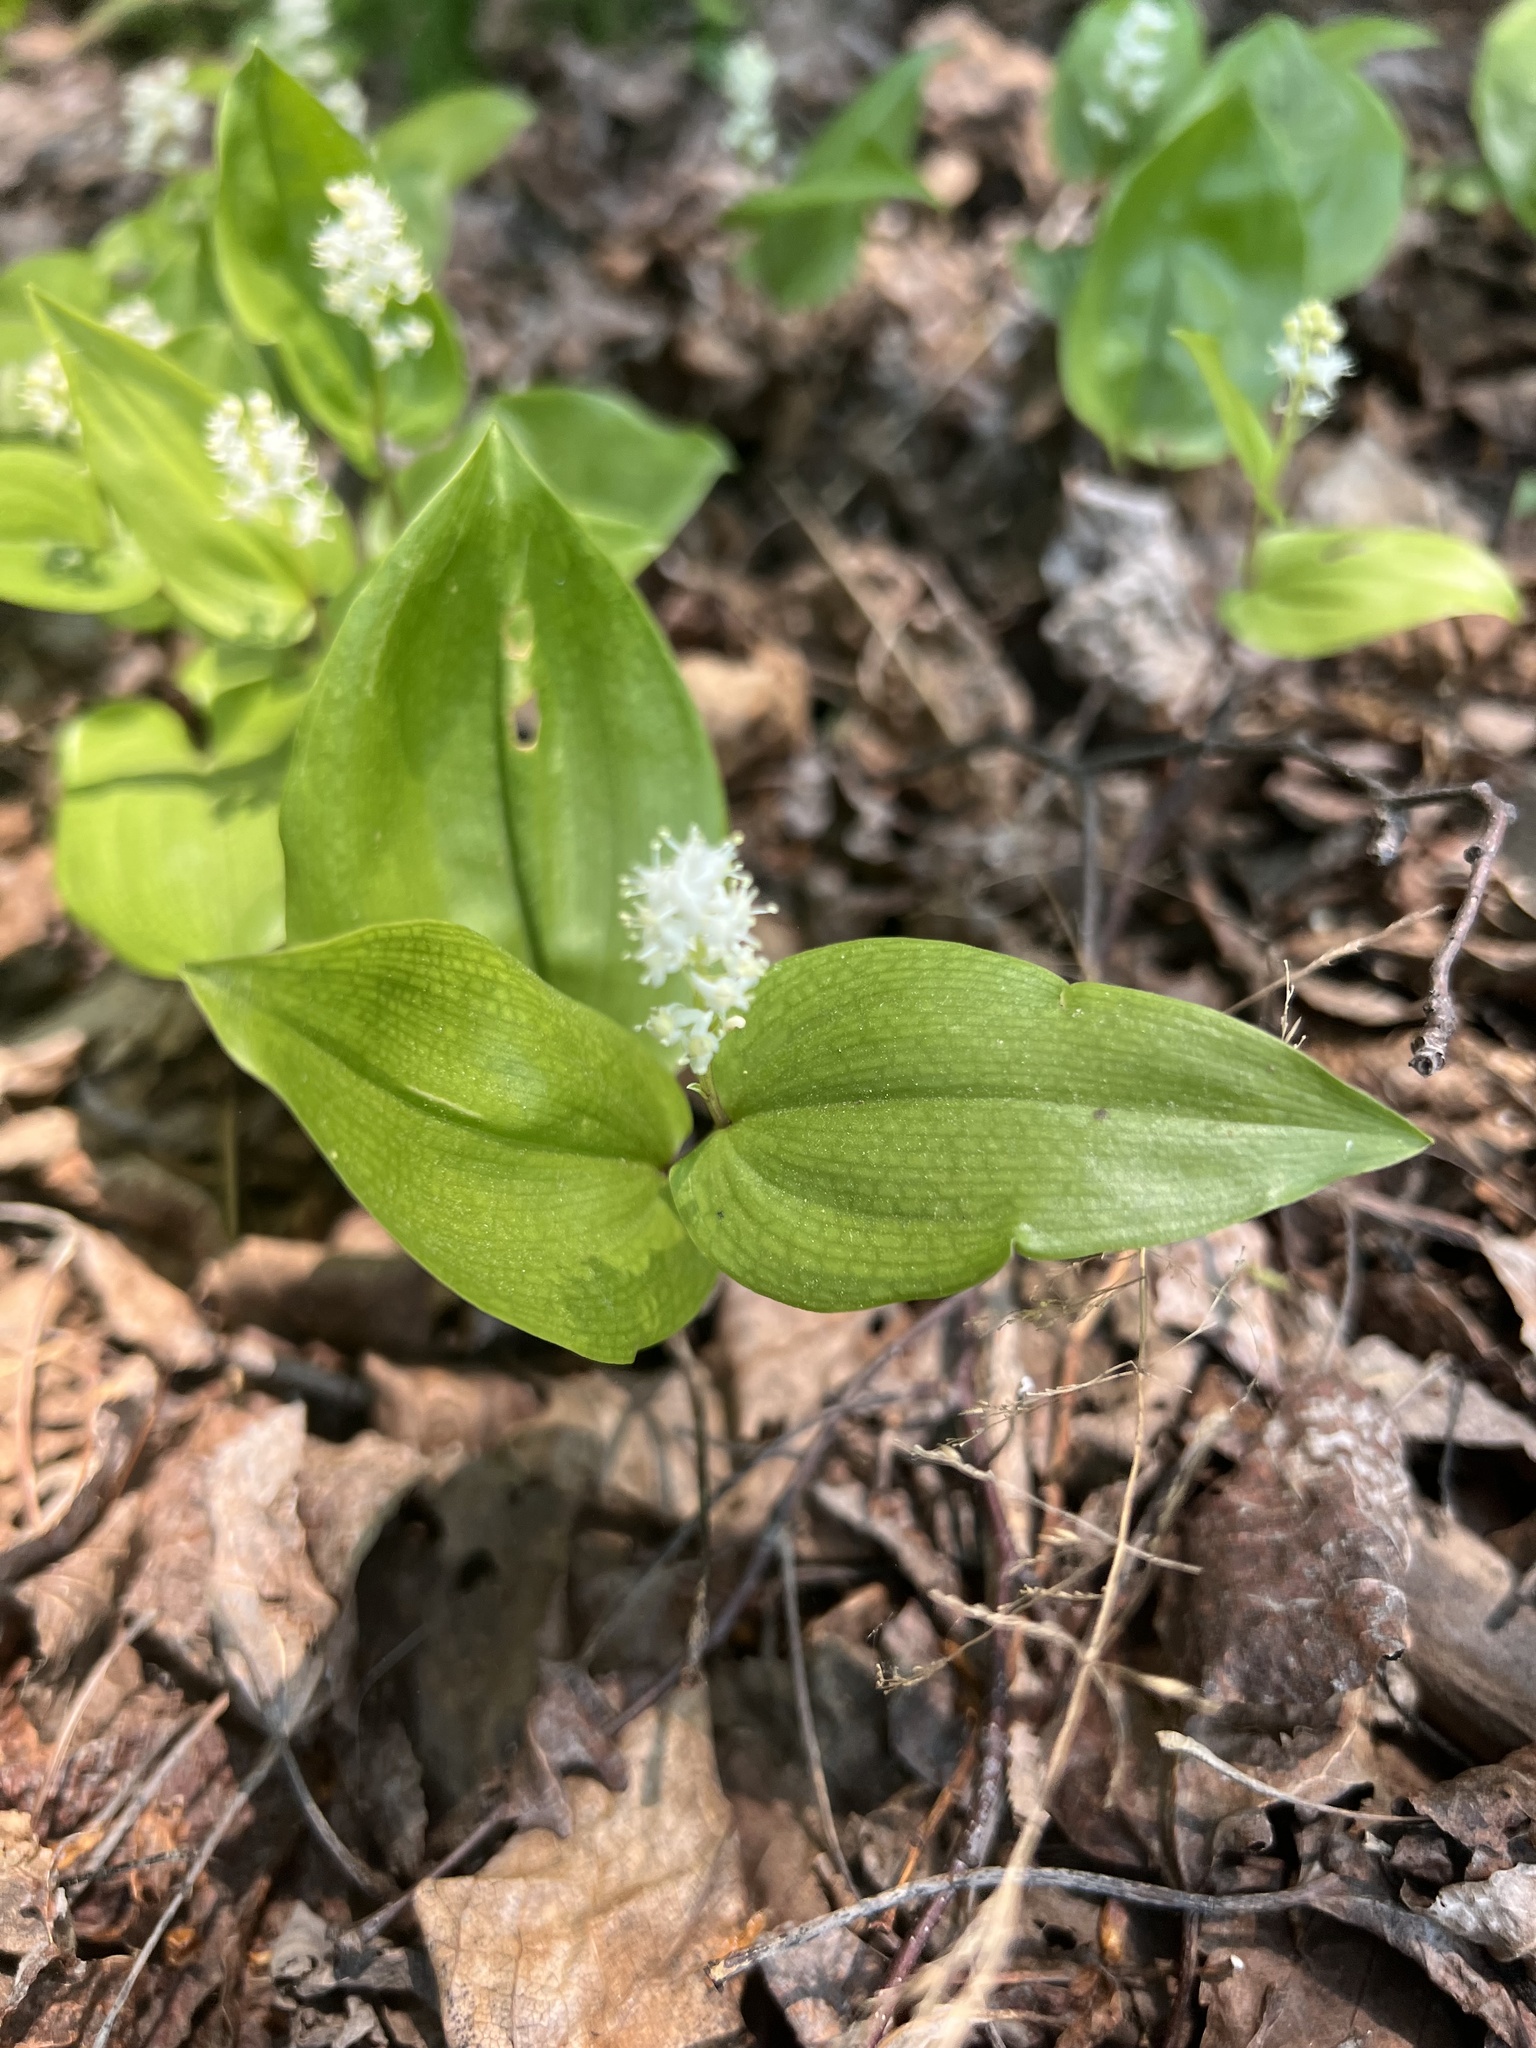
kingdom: Plantae
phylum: Tracheophyta
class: Liliopsida
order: Asparagales
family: Asparagaceae
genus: Maianthemum
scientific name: Maianthemum canadense
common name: False lily-of-the-valley
